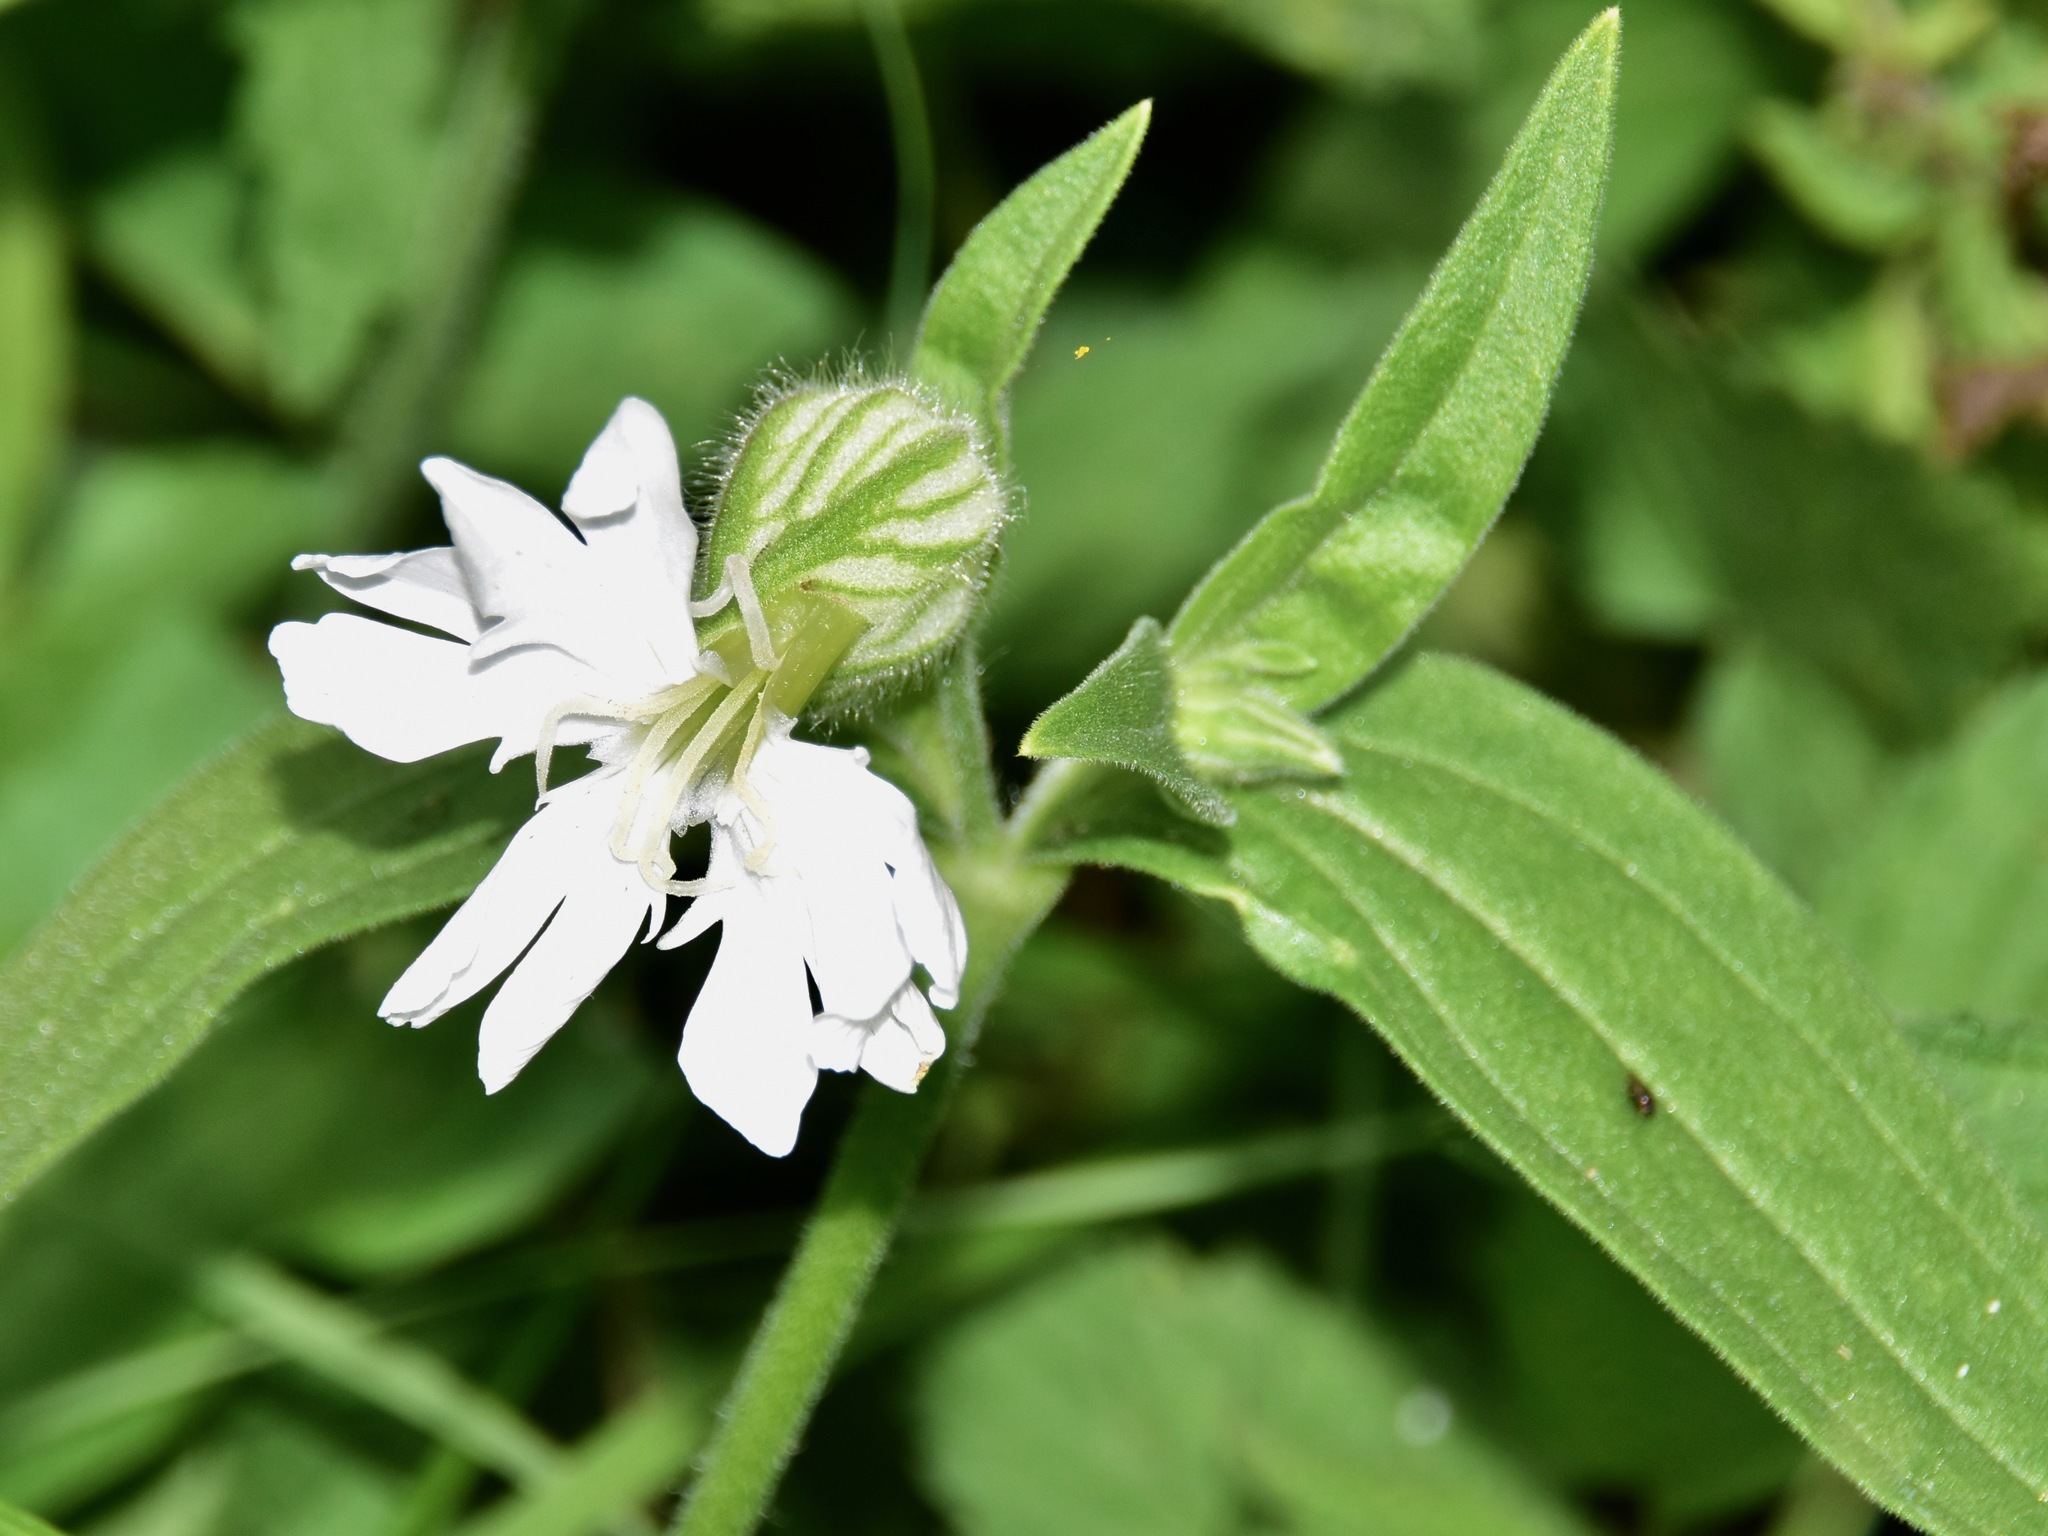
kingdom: Plantae
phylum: Tracheophyta
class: Magnoliopsida
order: Caryophyllales
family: Caryophyllaceae
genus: Silene
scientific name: Silene latifolia
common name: White campion
